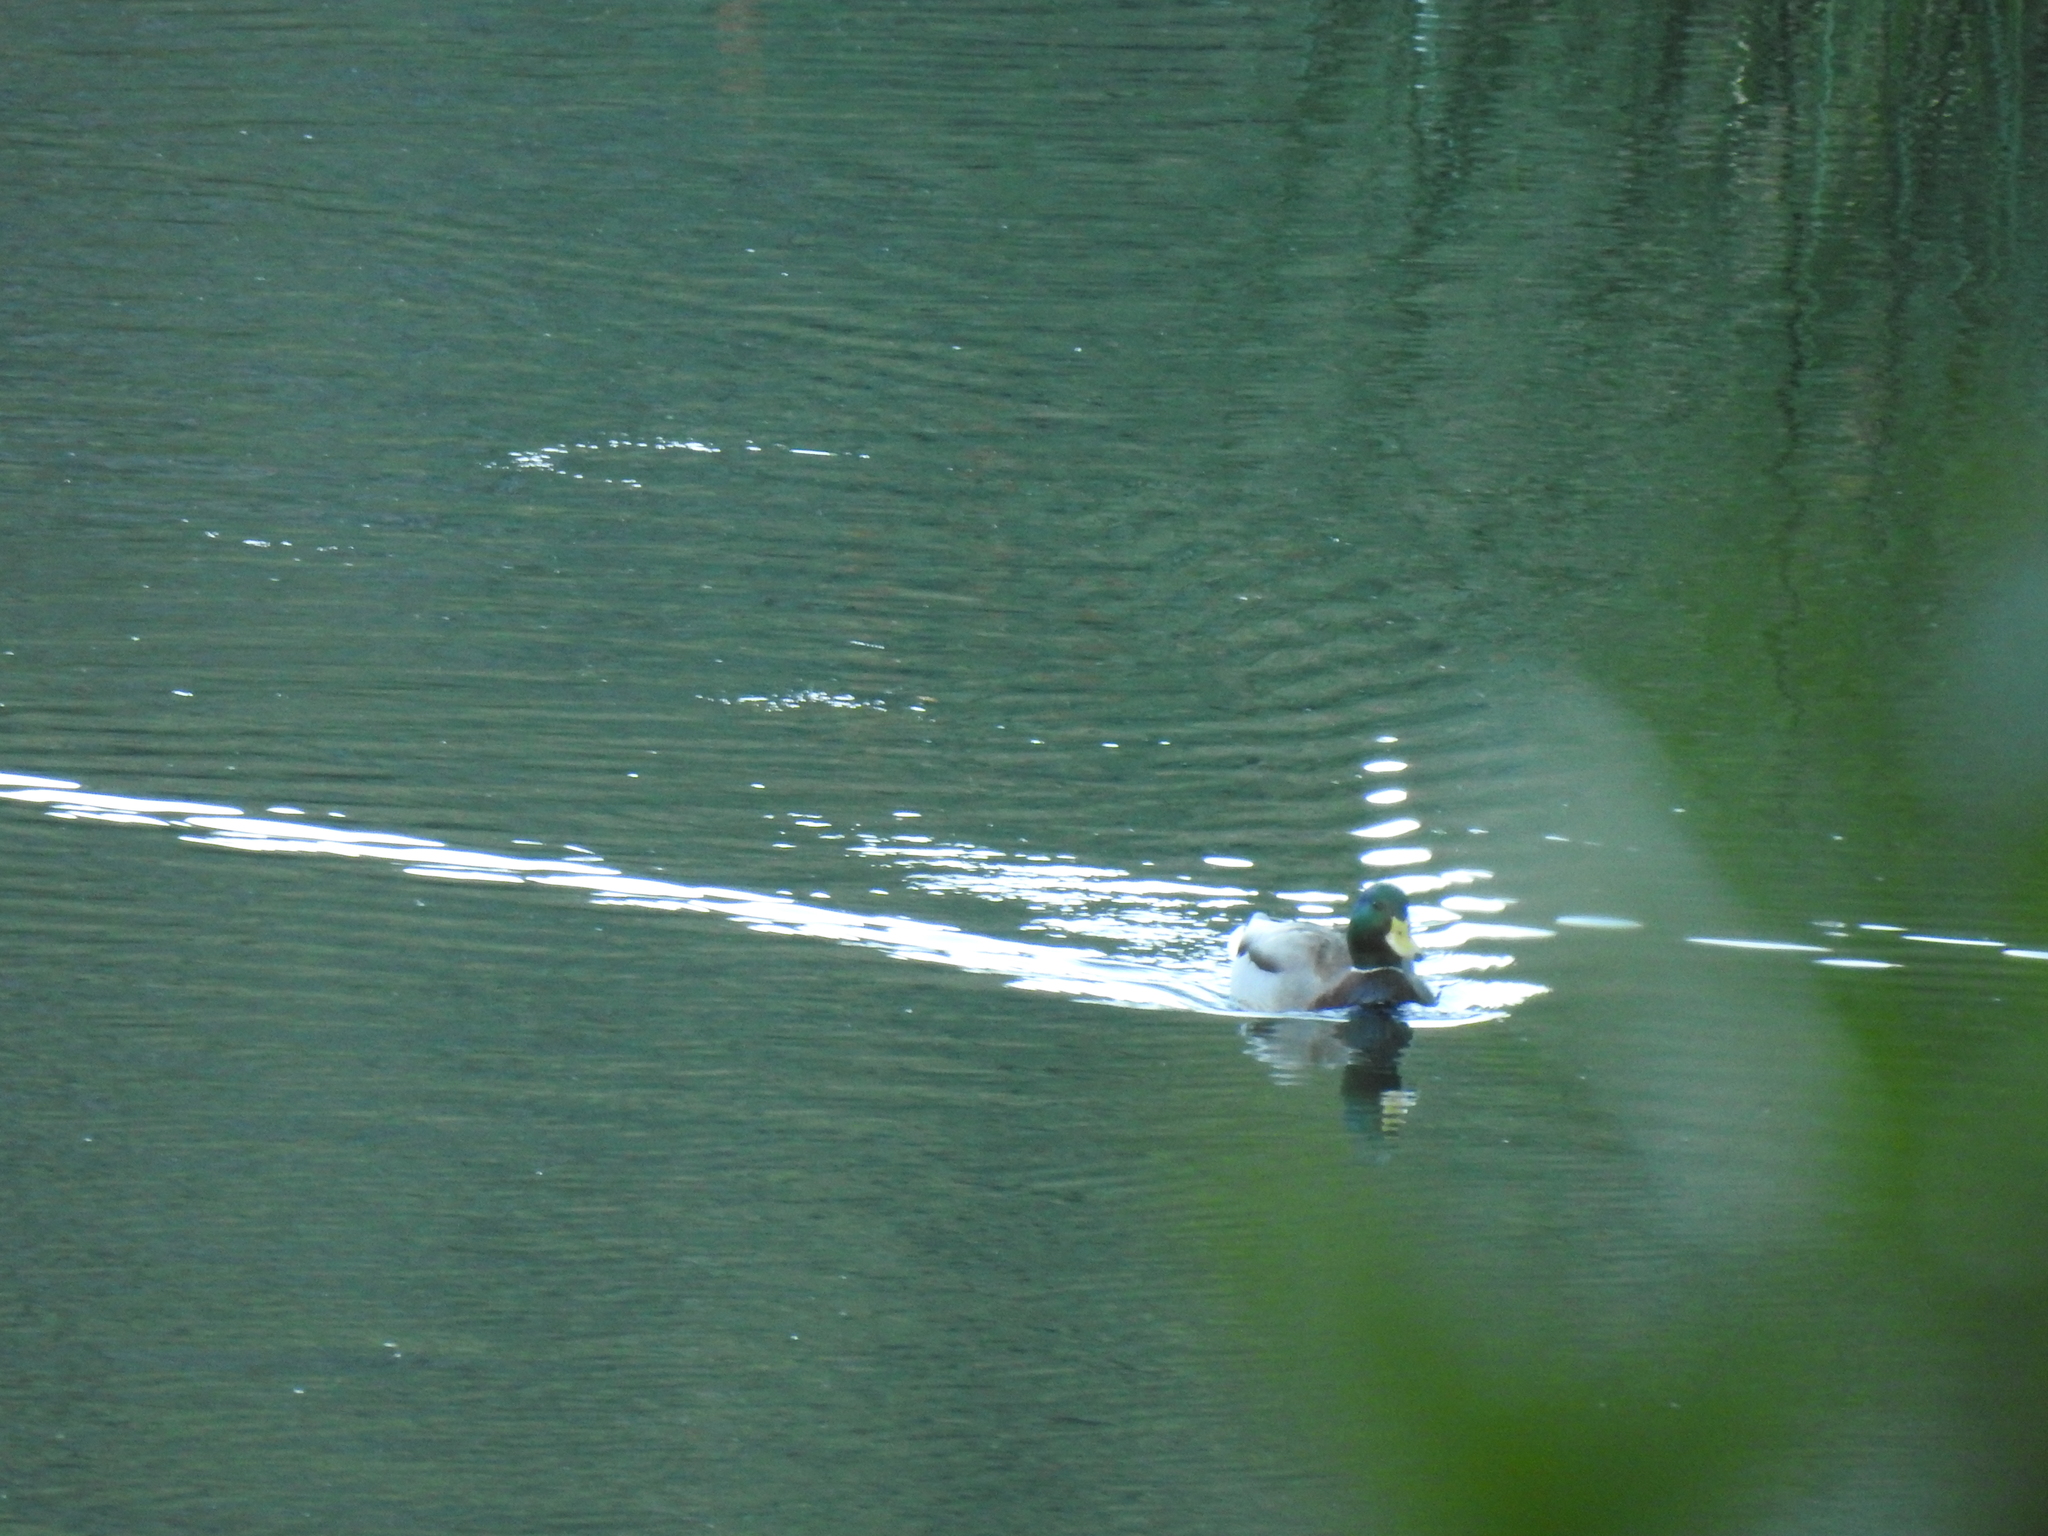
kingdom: Animalia
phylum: Chordata
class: Aves
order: Anseriformes
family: Anatidae
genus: Anas
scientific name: Anas platyrhynchos
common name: Mallard
